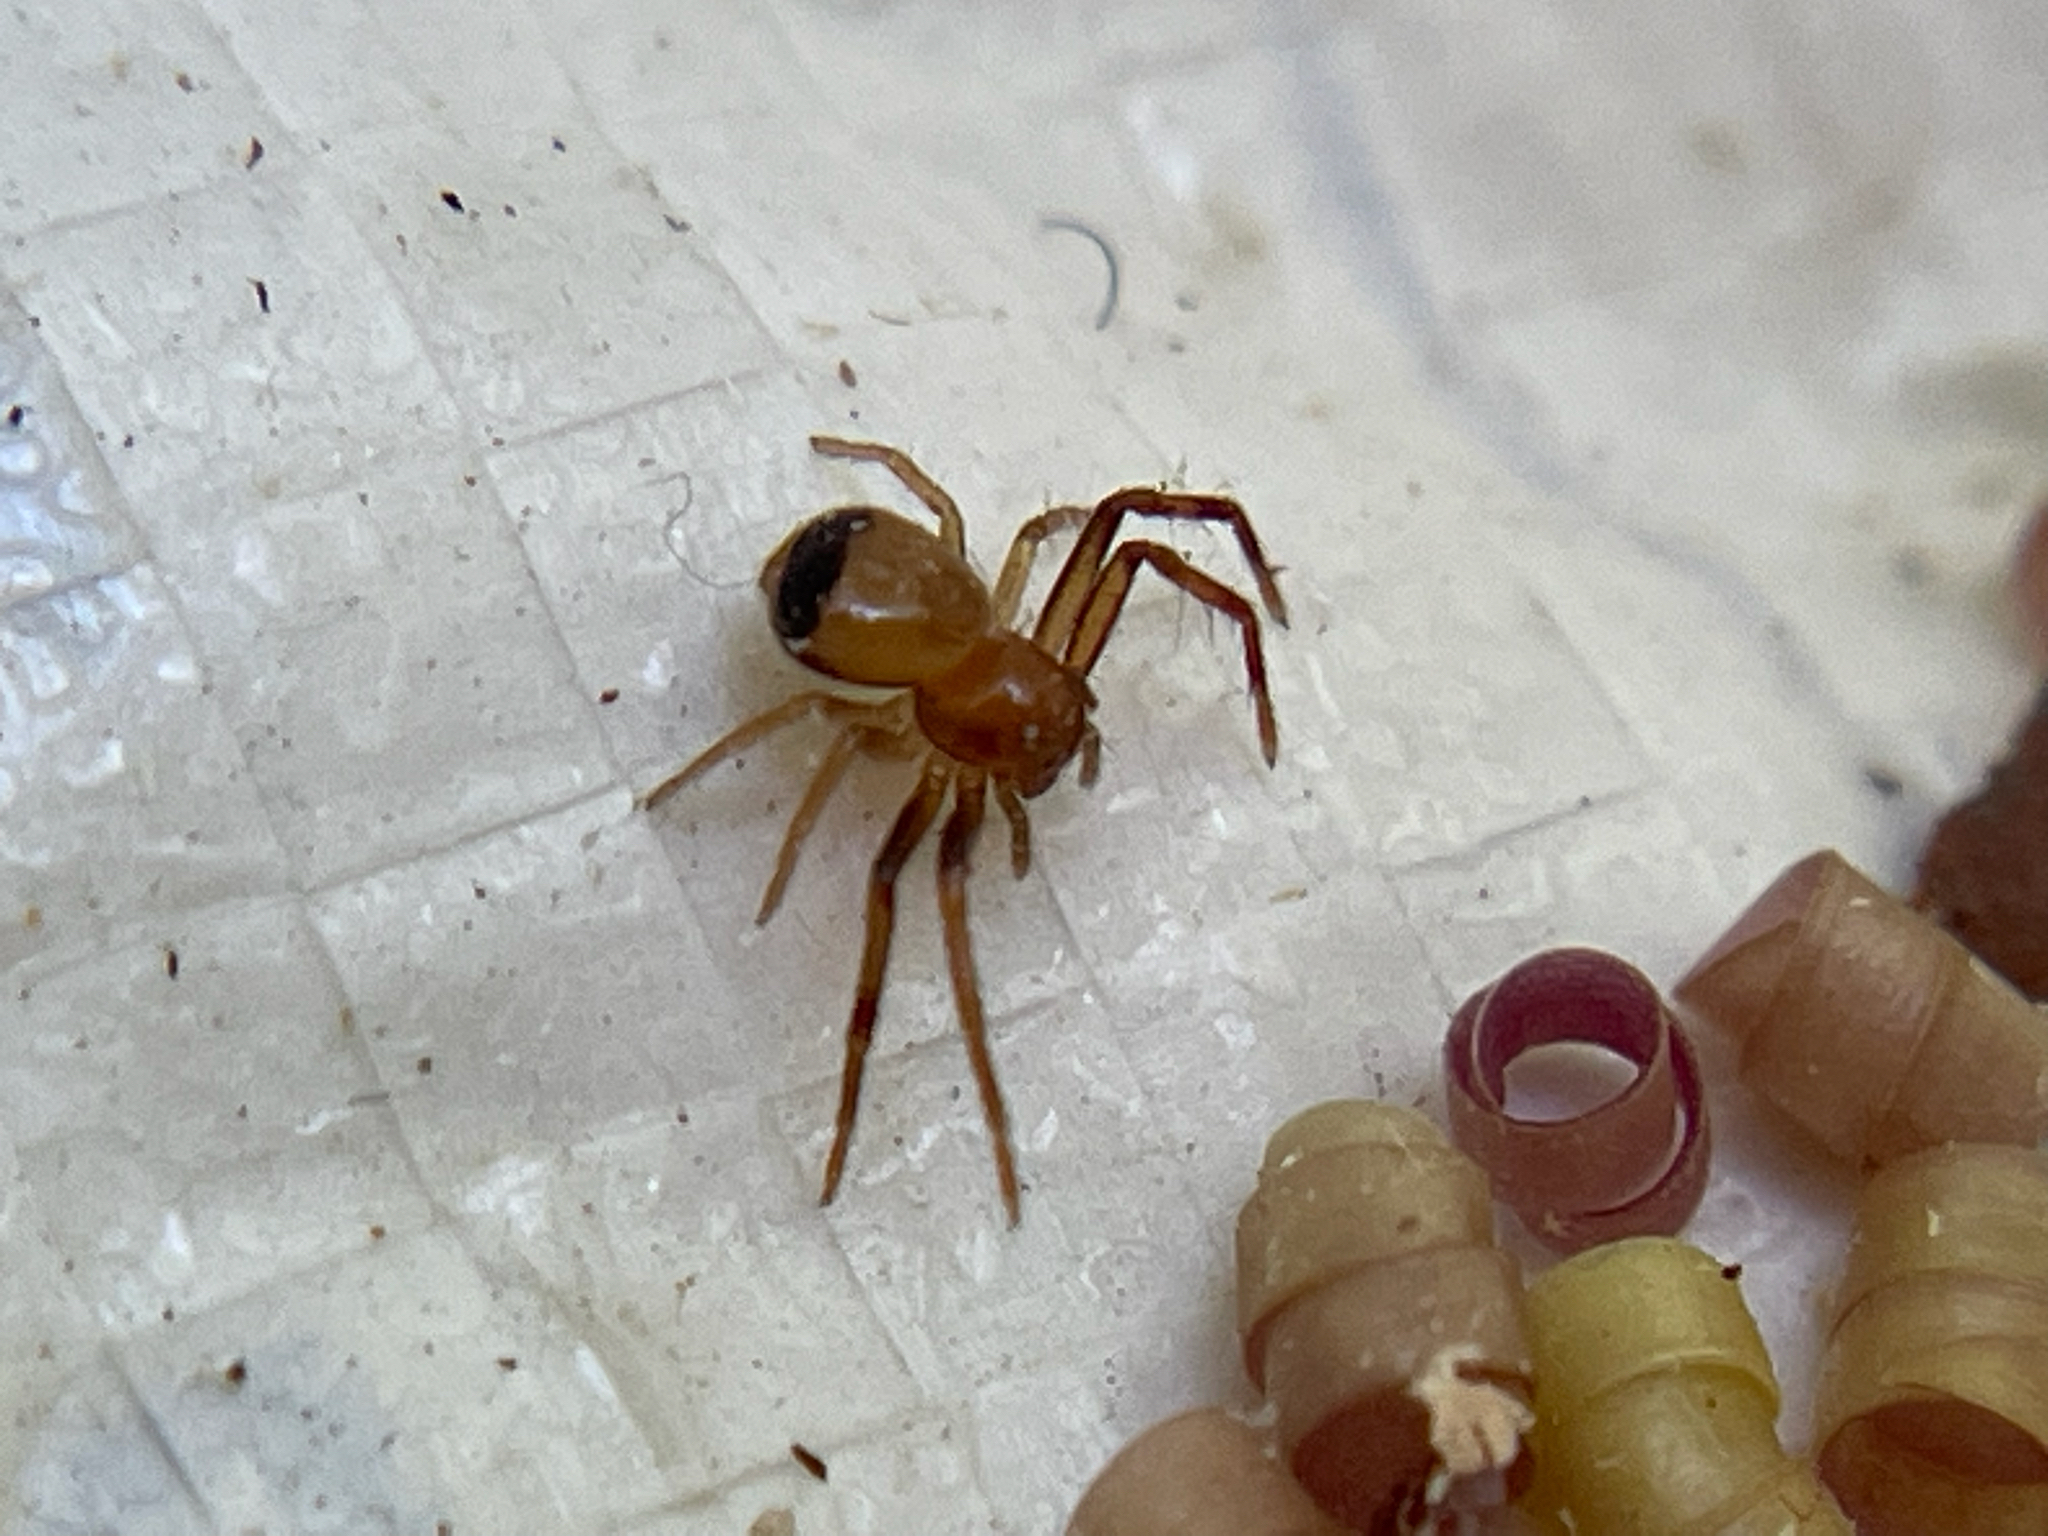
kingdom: Animalia
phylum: Arthropoda
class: Arachnida
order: Araneae
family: Thomisidae
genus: Synema
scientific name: Synema parvulum
